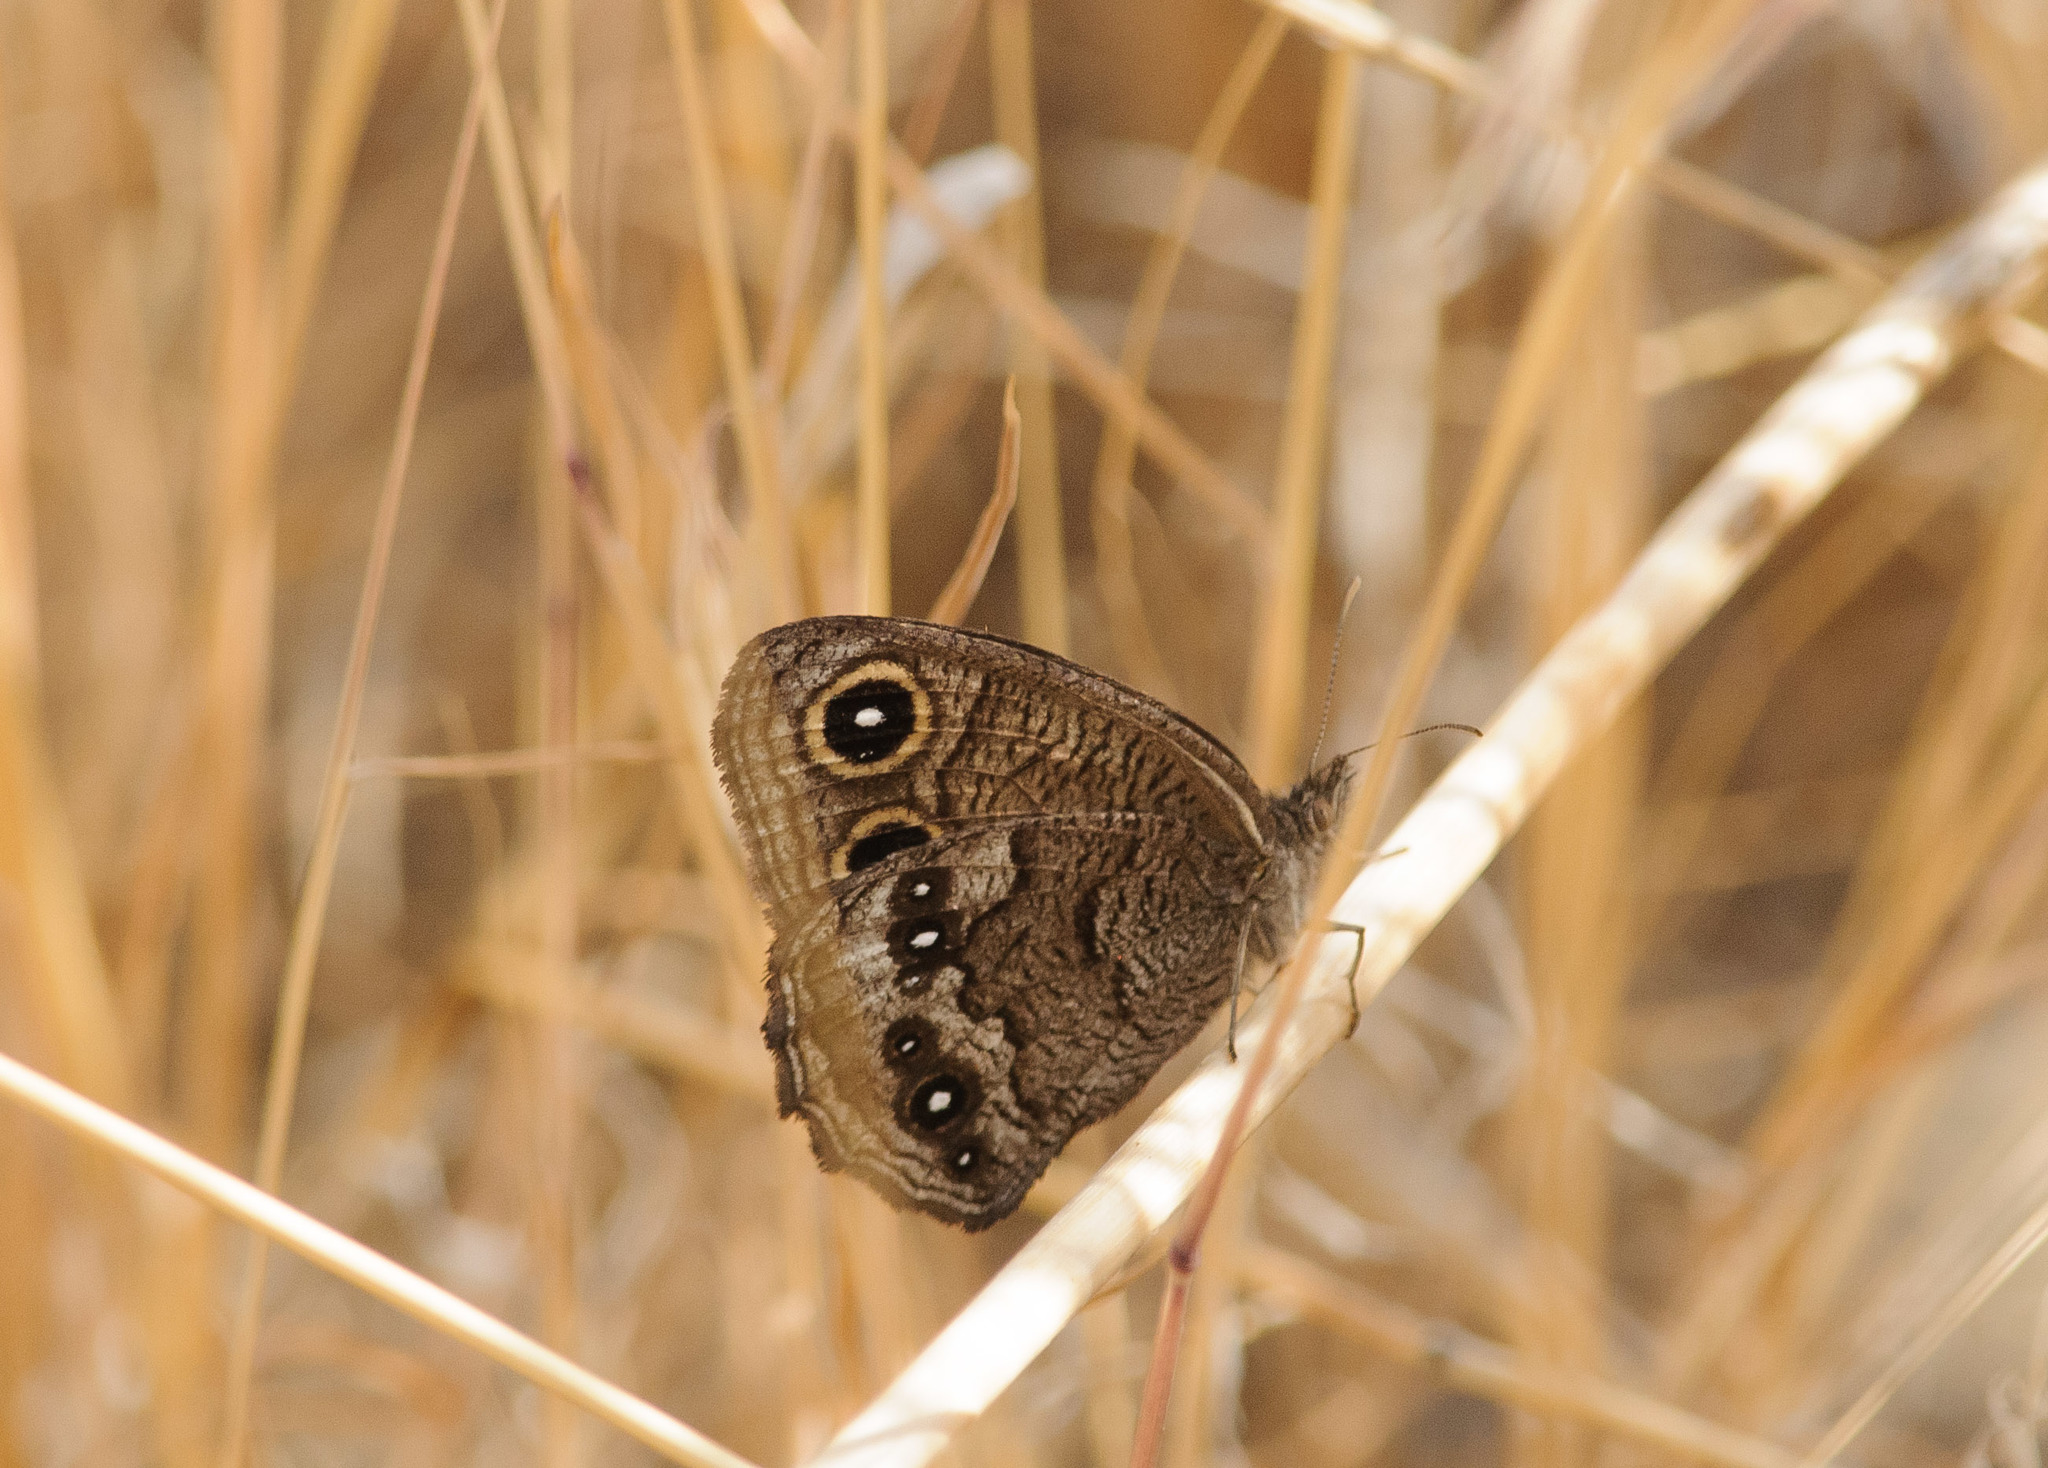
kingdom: Animalia
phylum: Arthropoda
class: Insecta
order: Lepidoptera
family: Nymphalidae
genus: Cercyonis
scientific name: Cercyonis sthenele
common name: Great basin wood-nymph
